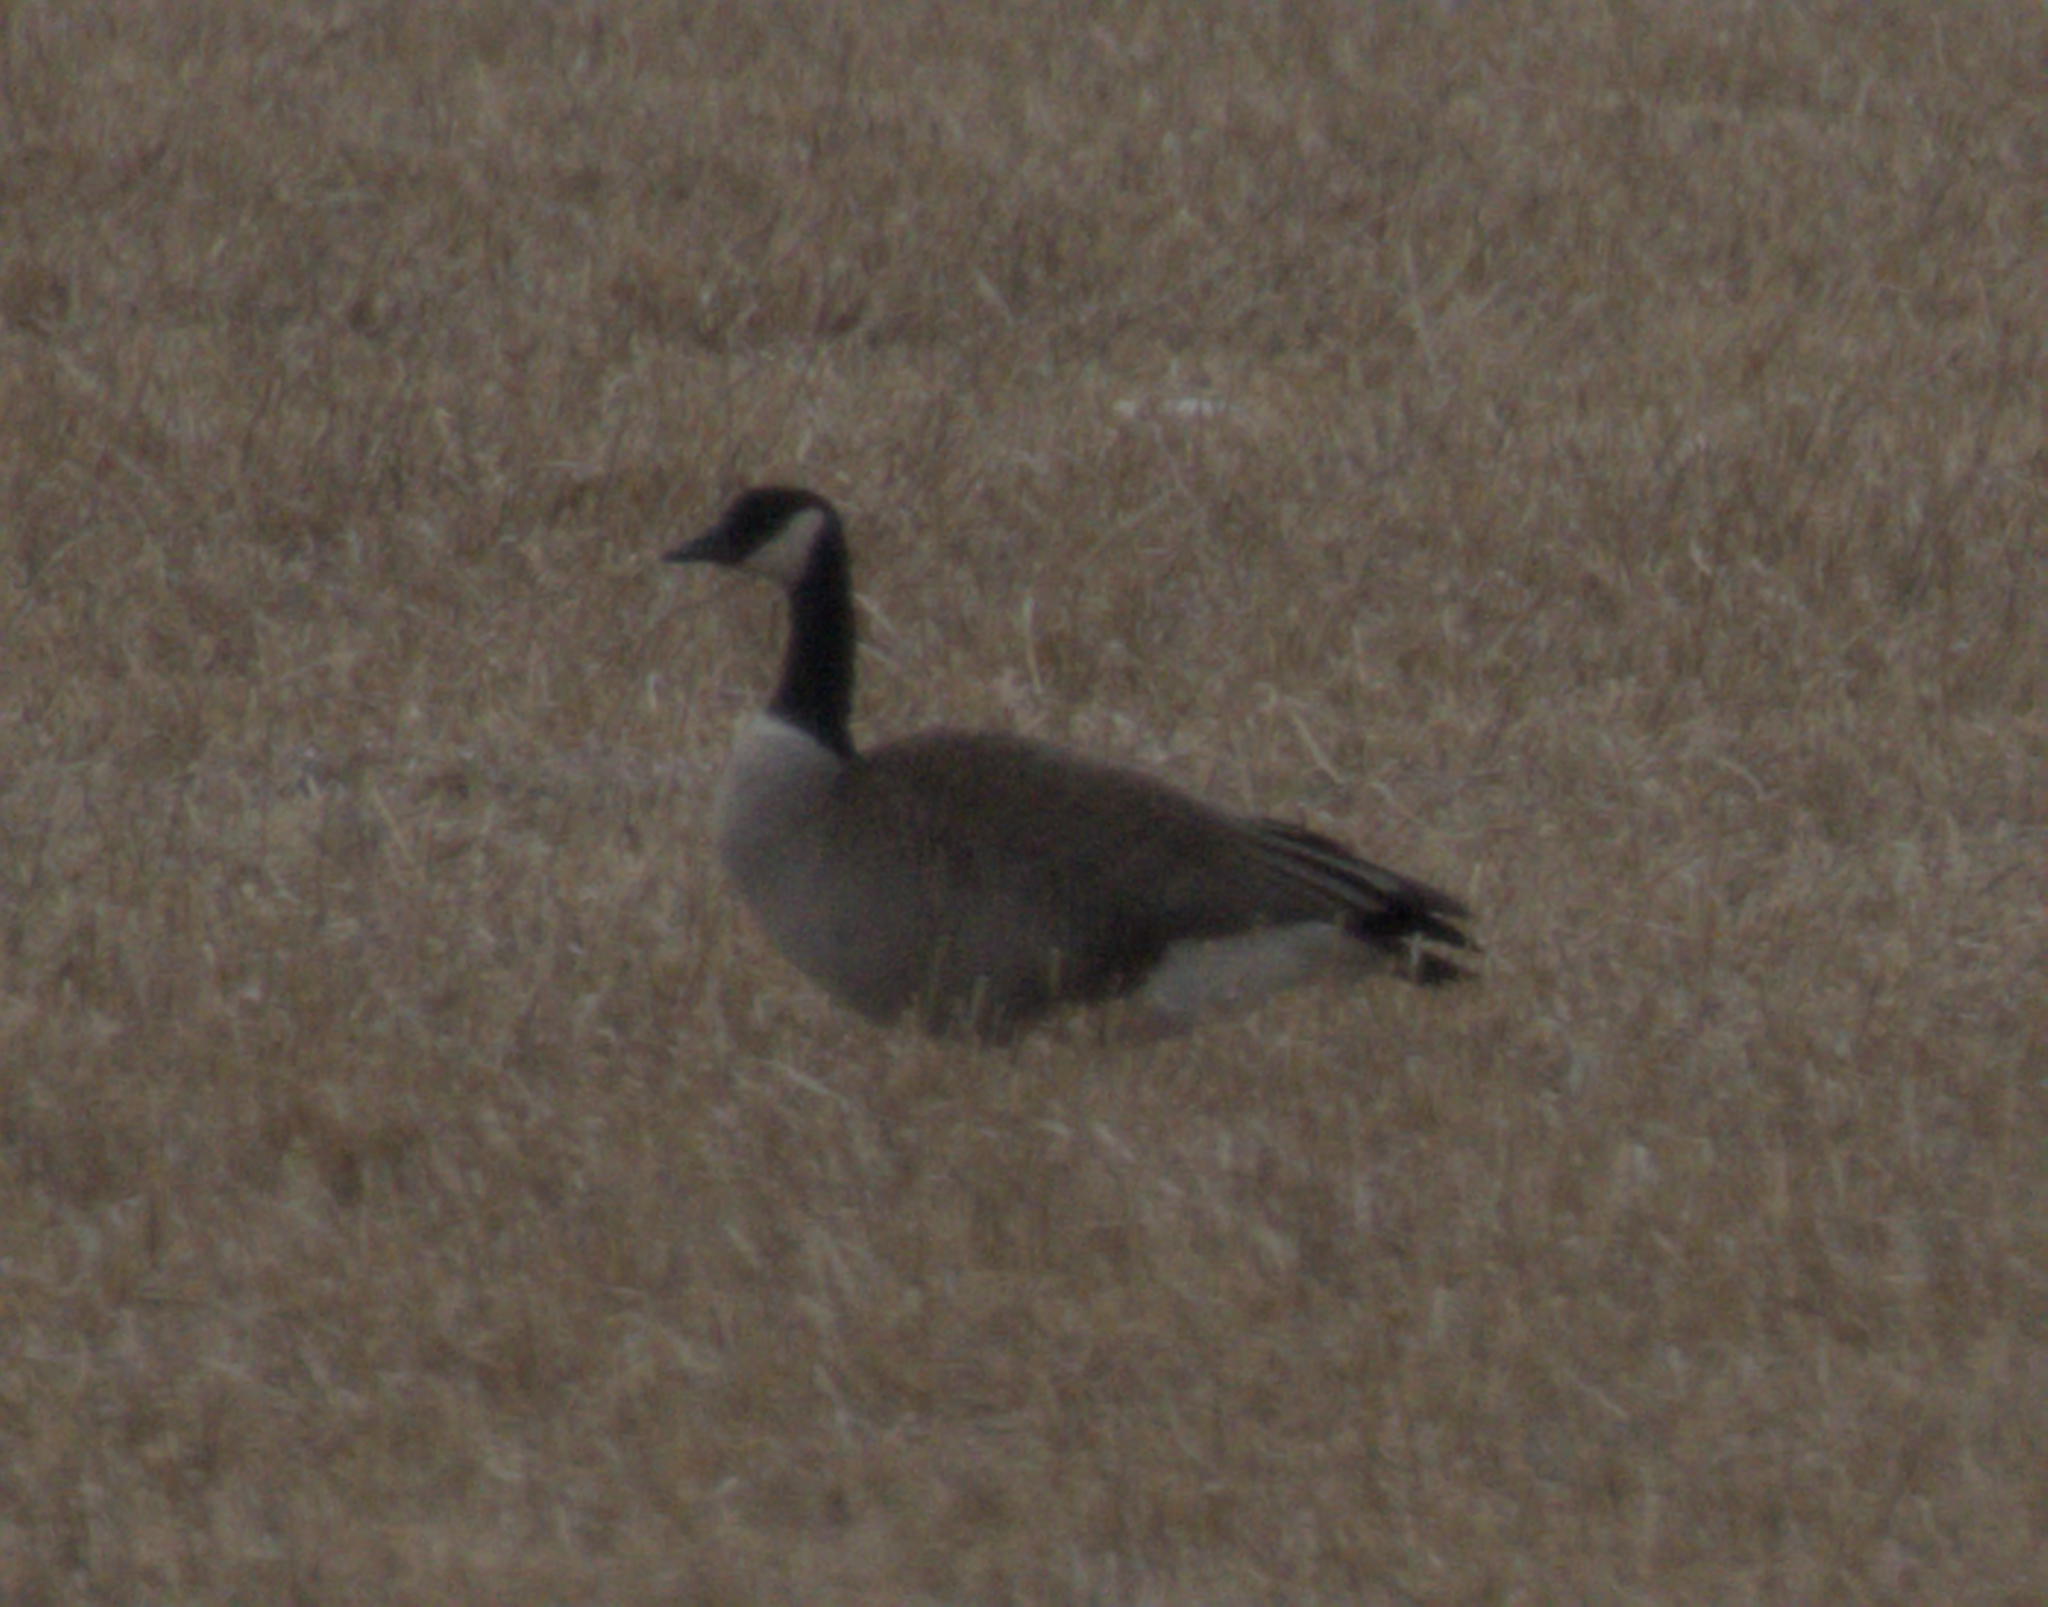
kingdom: Animalia
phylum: Chordata
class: Aves
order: Anseriformes
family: Anatidae
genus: Branta
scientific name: Branta canadensis
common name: Canada goose
